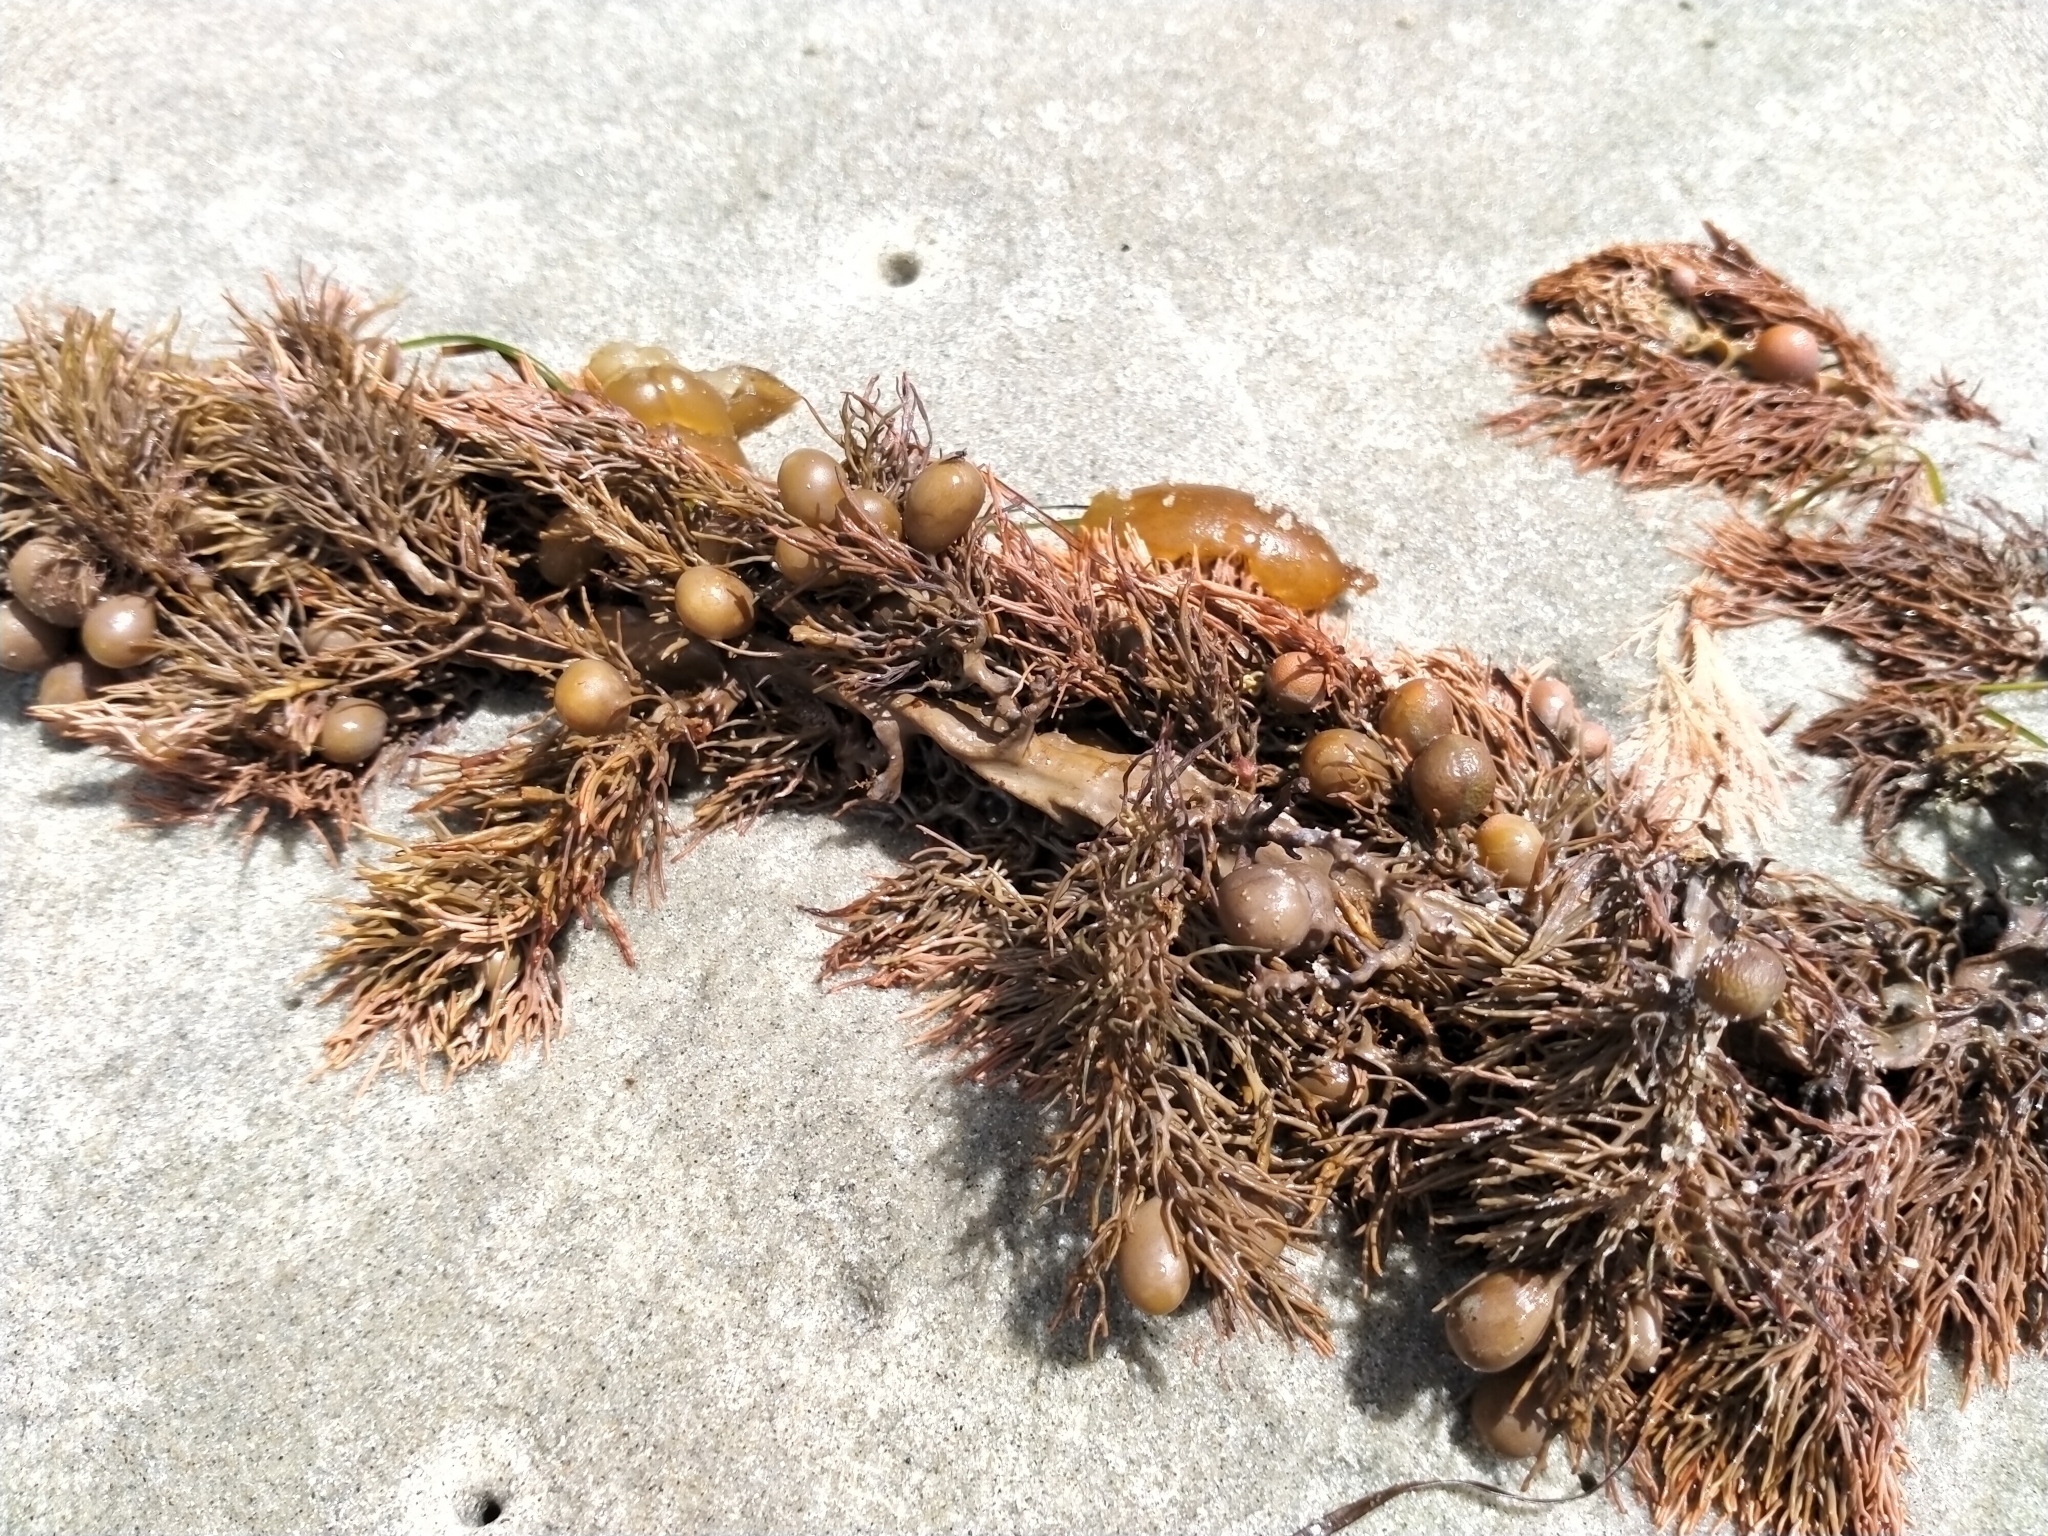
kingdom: Chromista
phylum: Ochrophyta
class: Phaeophyceae
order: Fucales
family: Sargassaceae
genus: Cystophora
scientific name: Cystophora retroflexa
